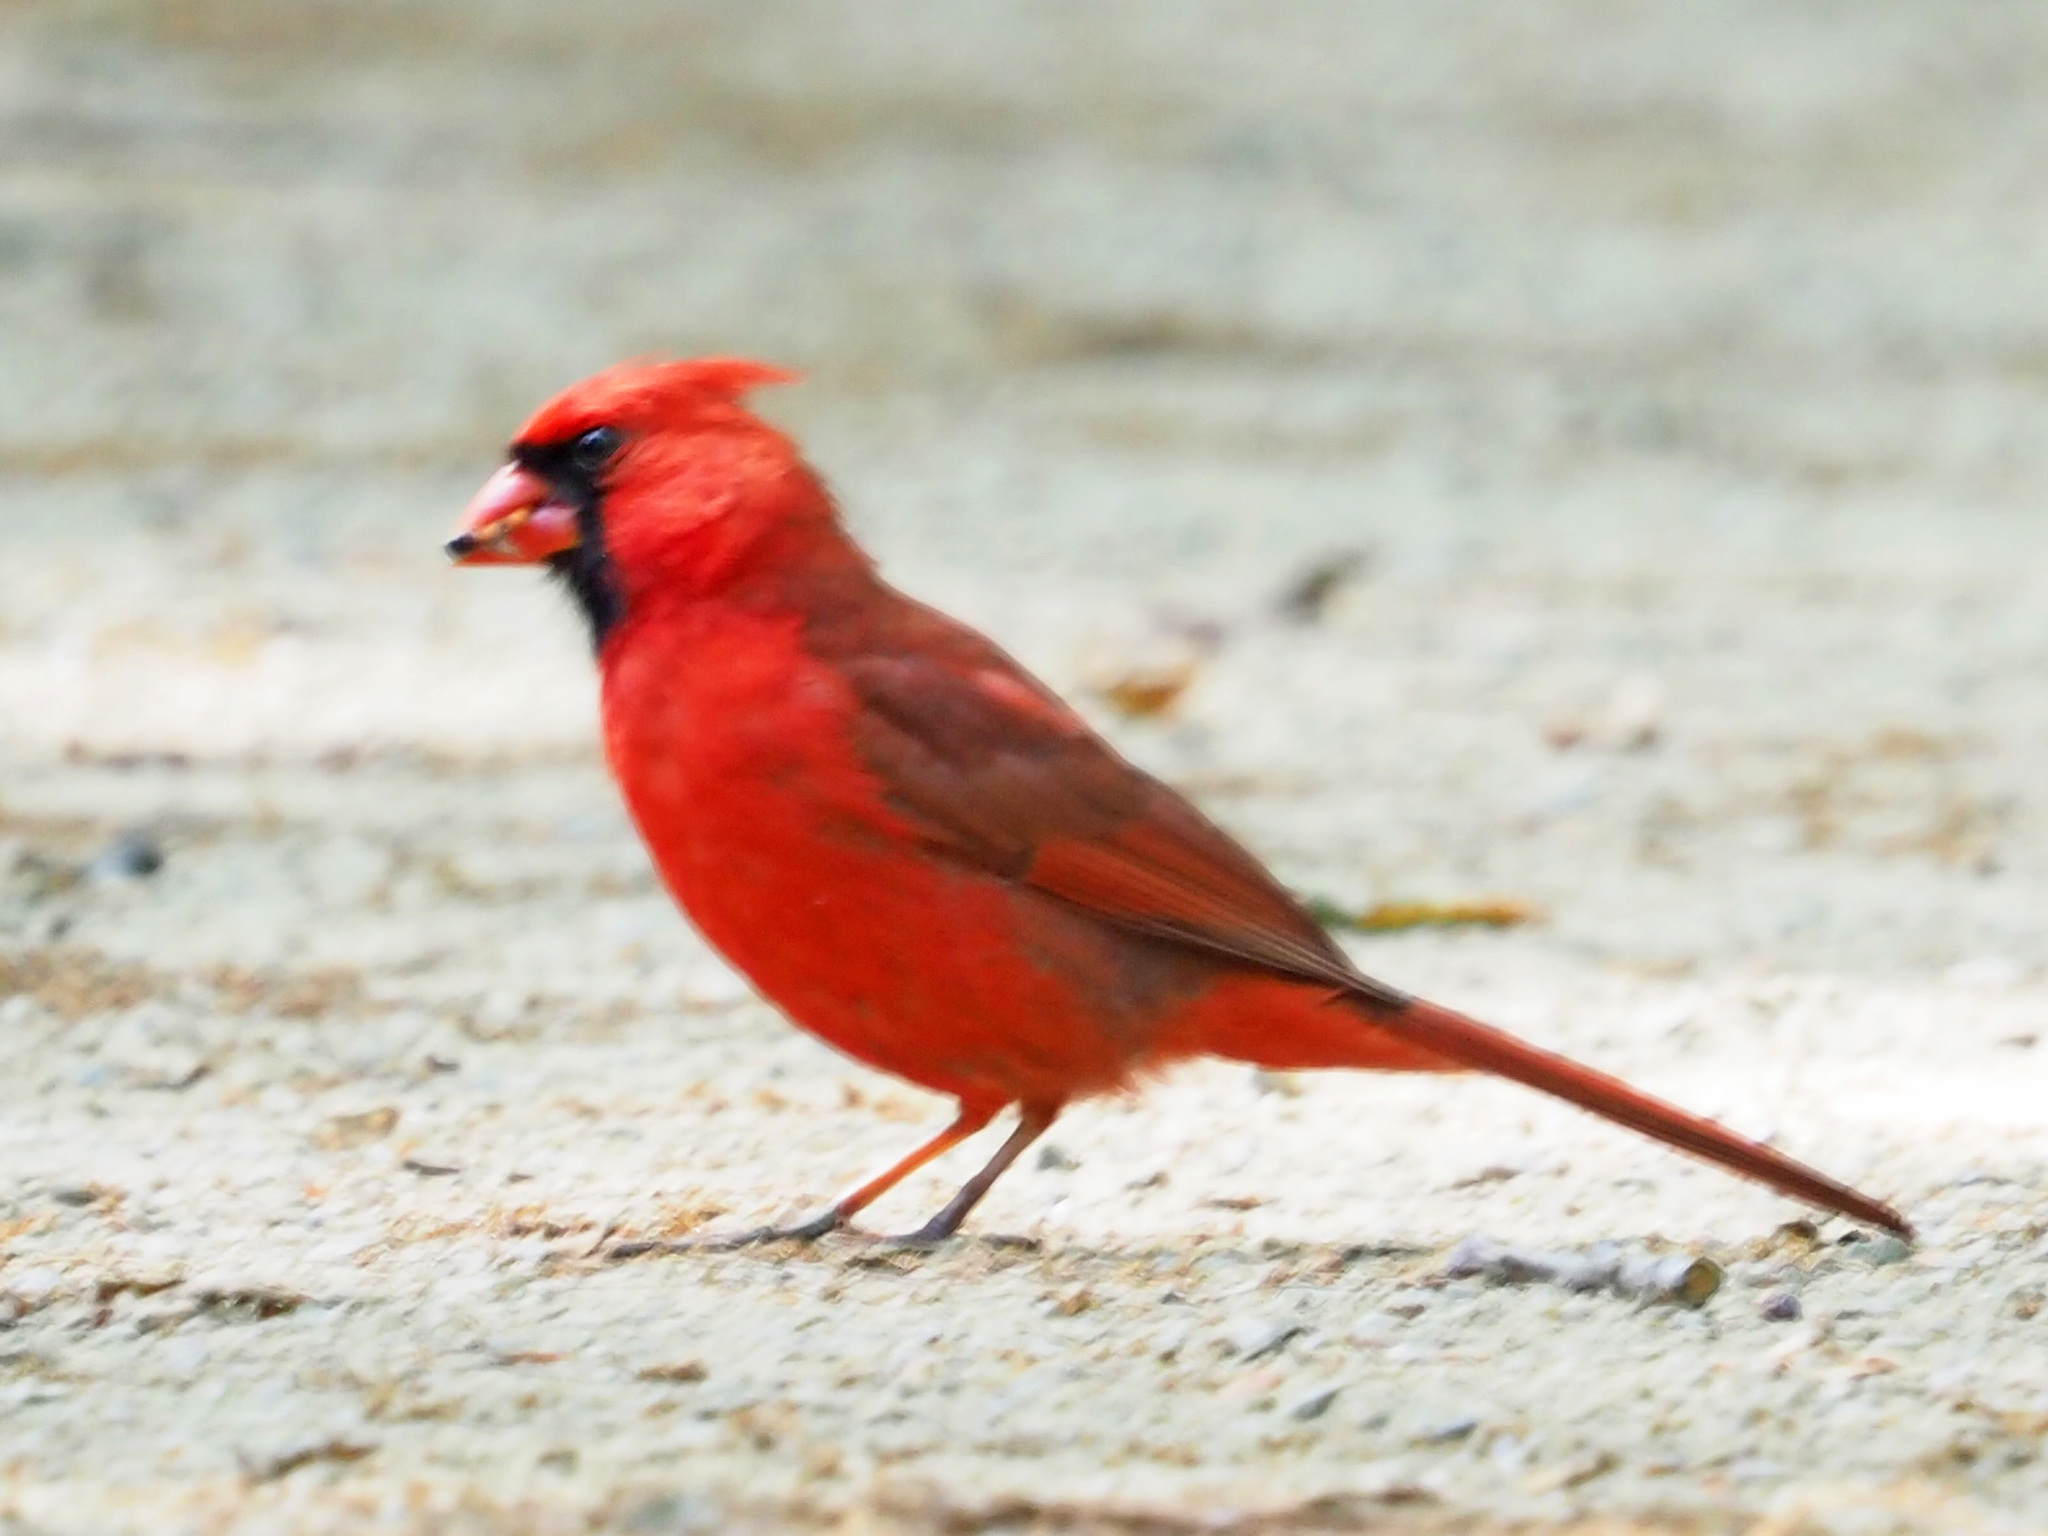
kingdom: Animalia
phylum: Chordata
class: Aves
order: Passeriformes
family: Cardinalidae
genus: Cardinalis
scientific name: Cardinalis cardinalis
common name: Northern cardinal
